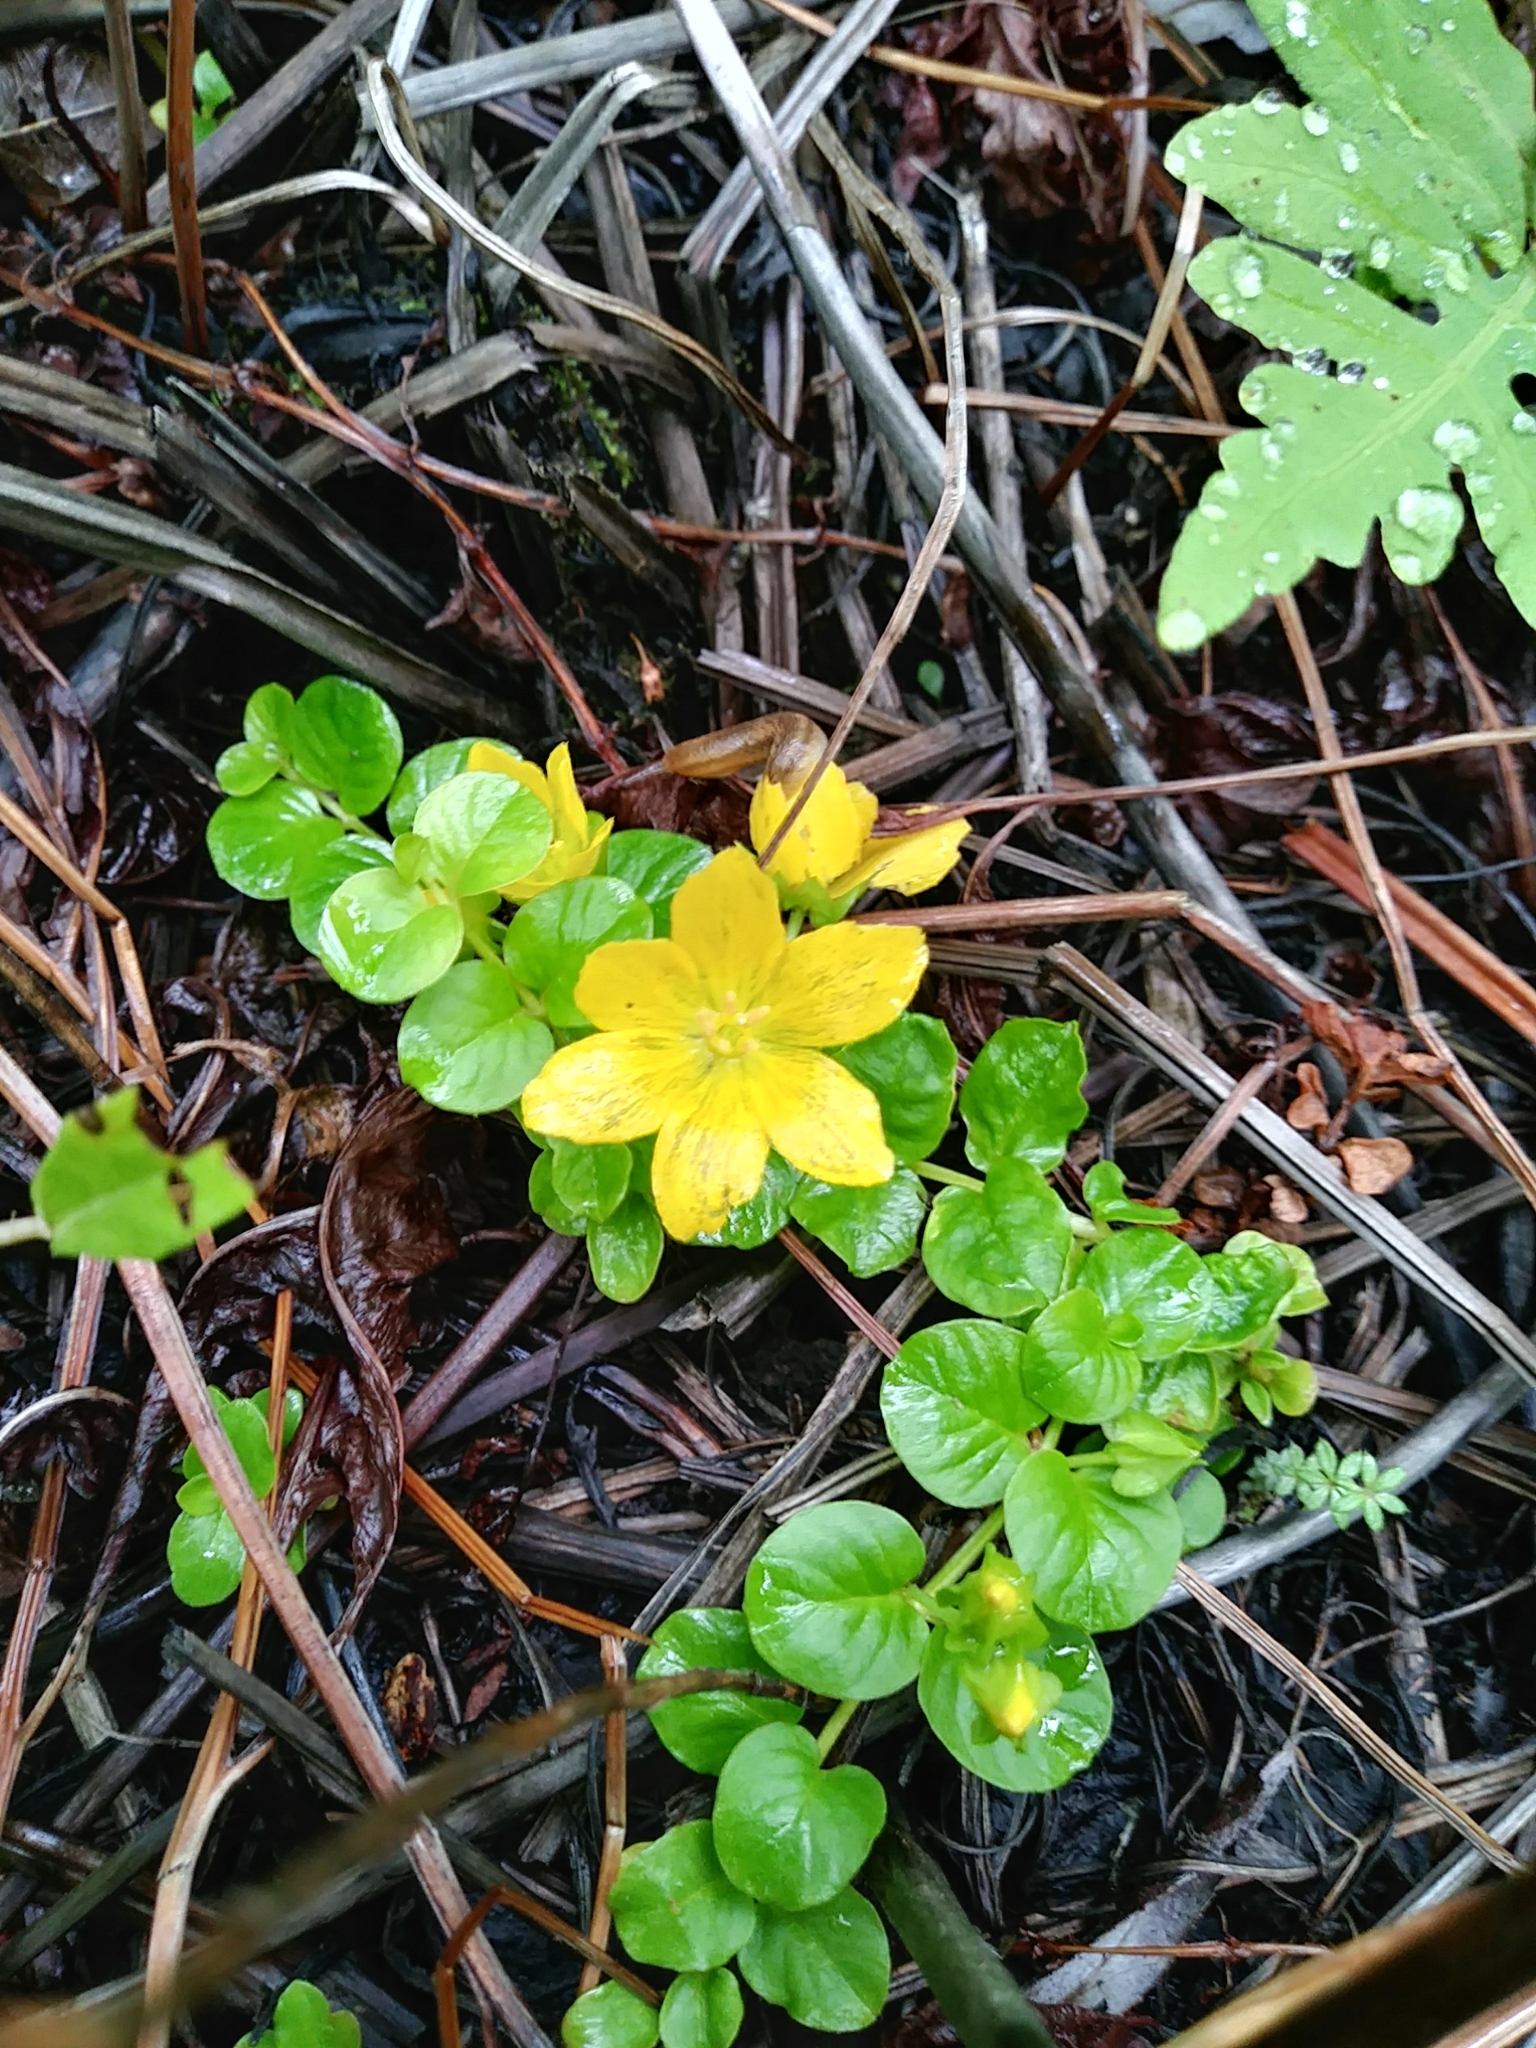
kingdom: Plantae
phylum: Tracheophyta
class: Magnoliopsida
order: Ericales
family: Primulaceae
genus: Lysimachia
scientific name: Lysimachia nummularia
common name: Moneywort
